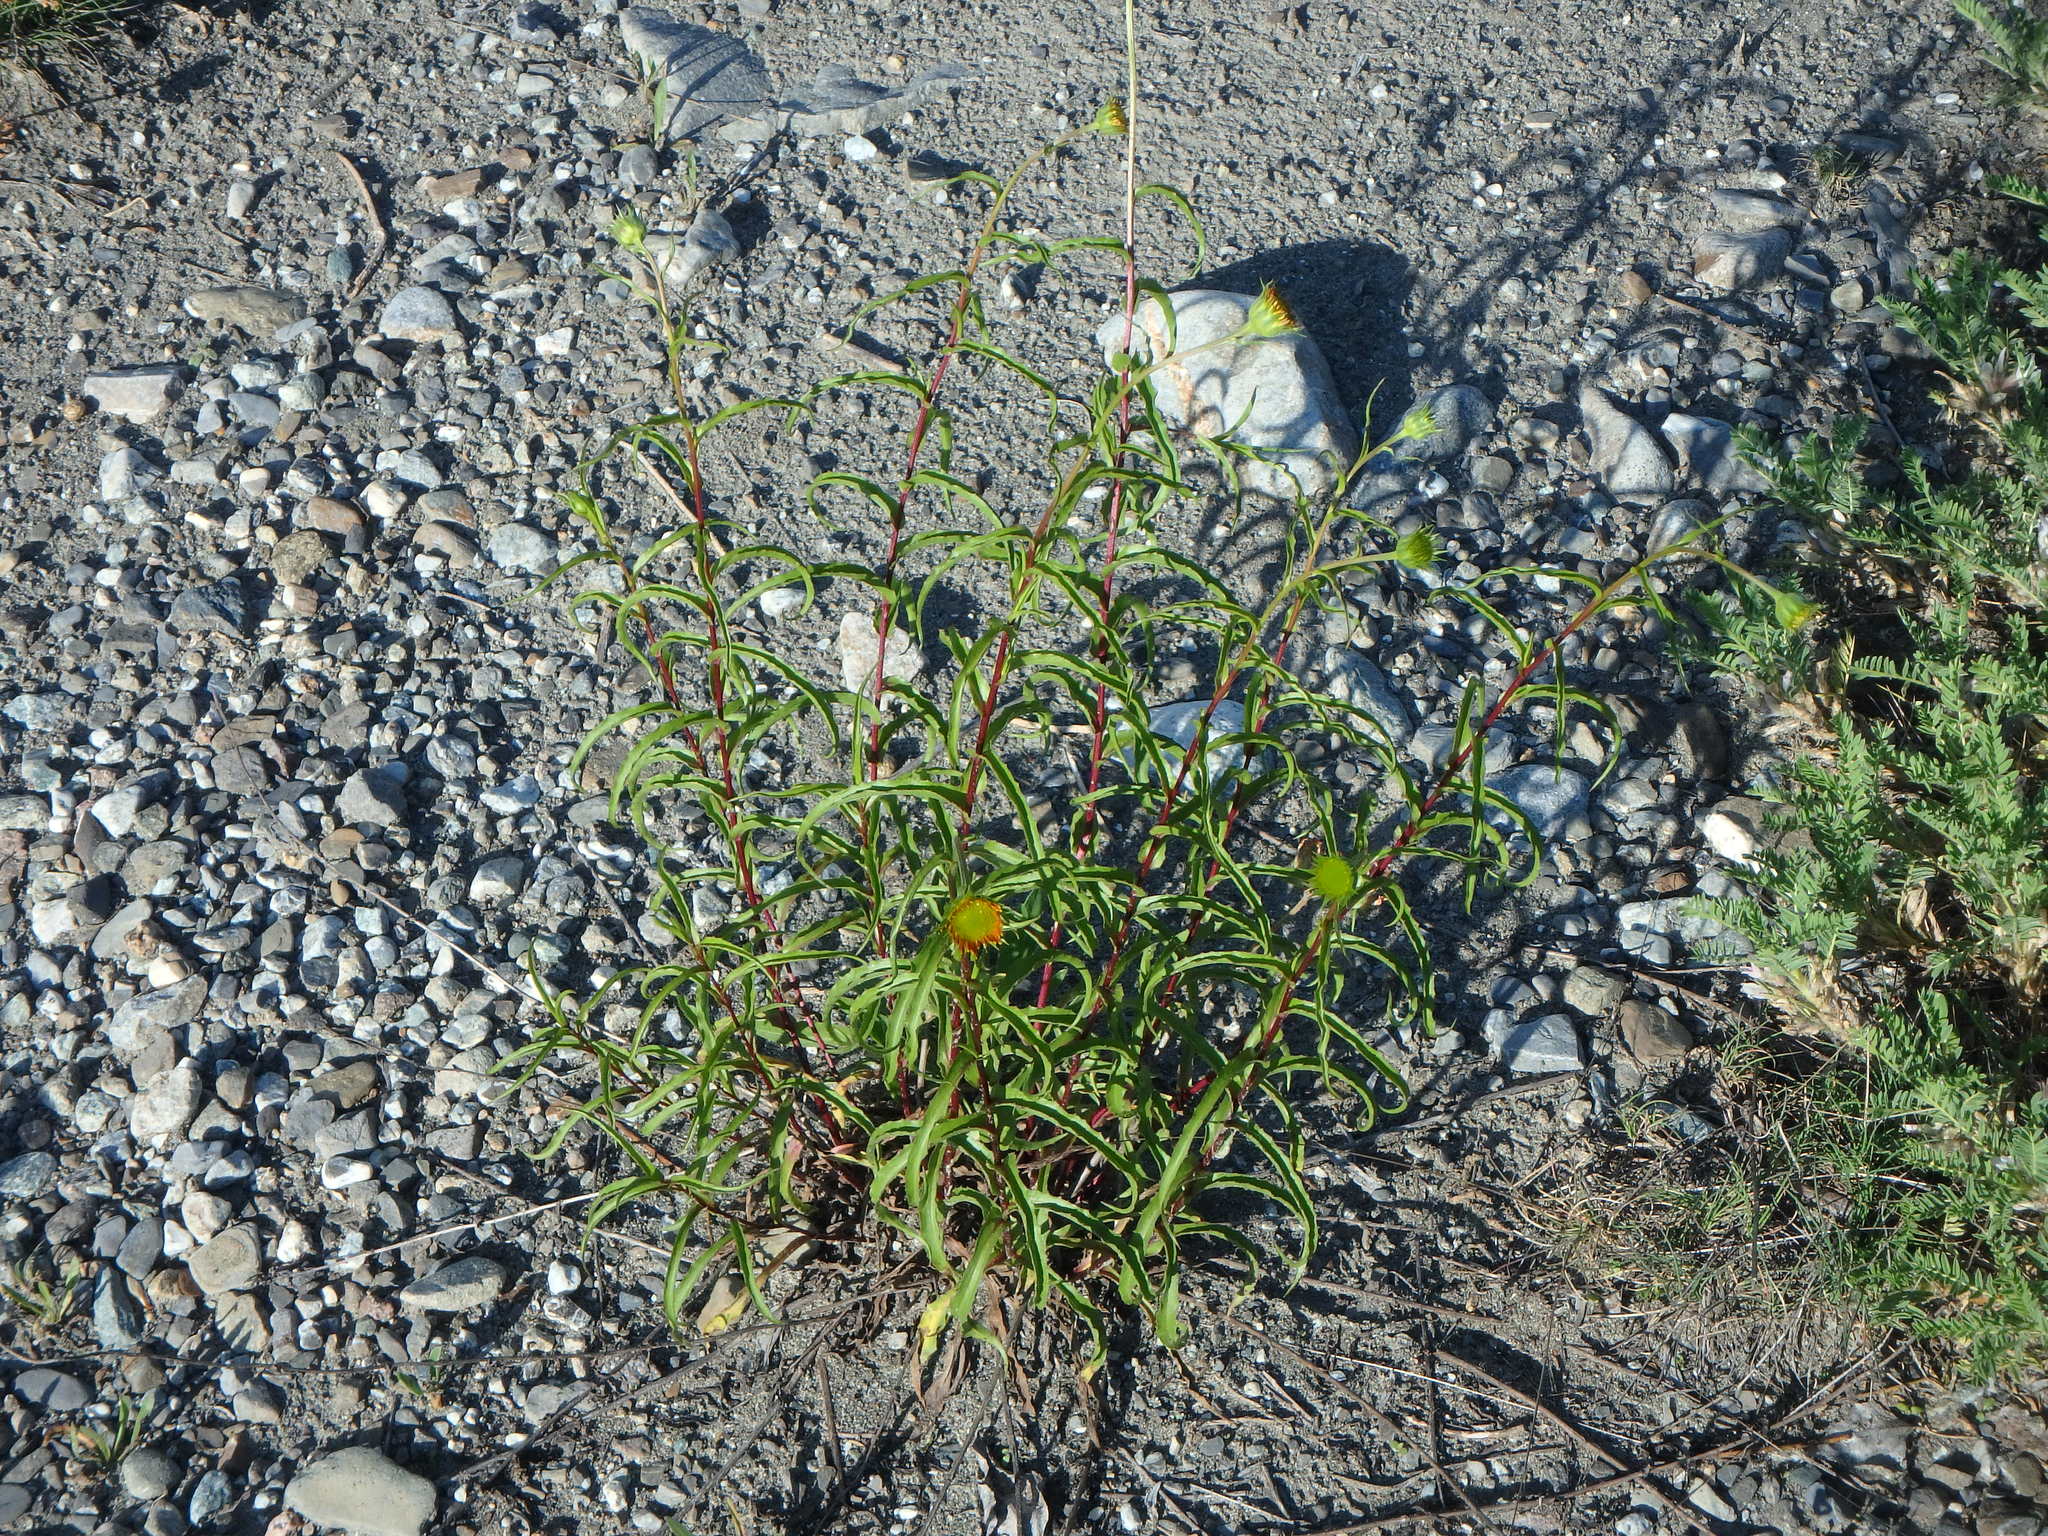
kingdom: Plantae
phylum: Tracheophyta
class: Magnoliopsida
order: Asterales
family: Asteraceae
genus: Buphthalmum
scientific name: Buphthalmum salicifolium
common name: Willow-leaved yellow-oxeye
